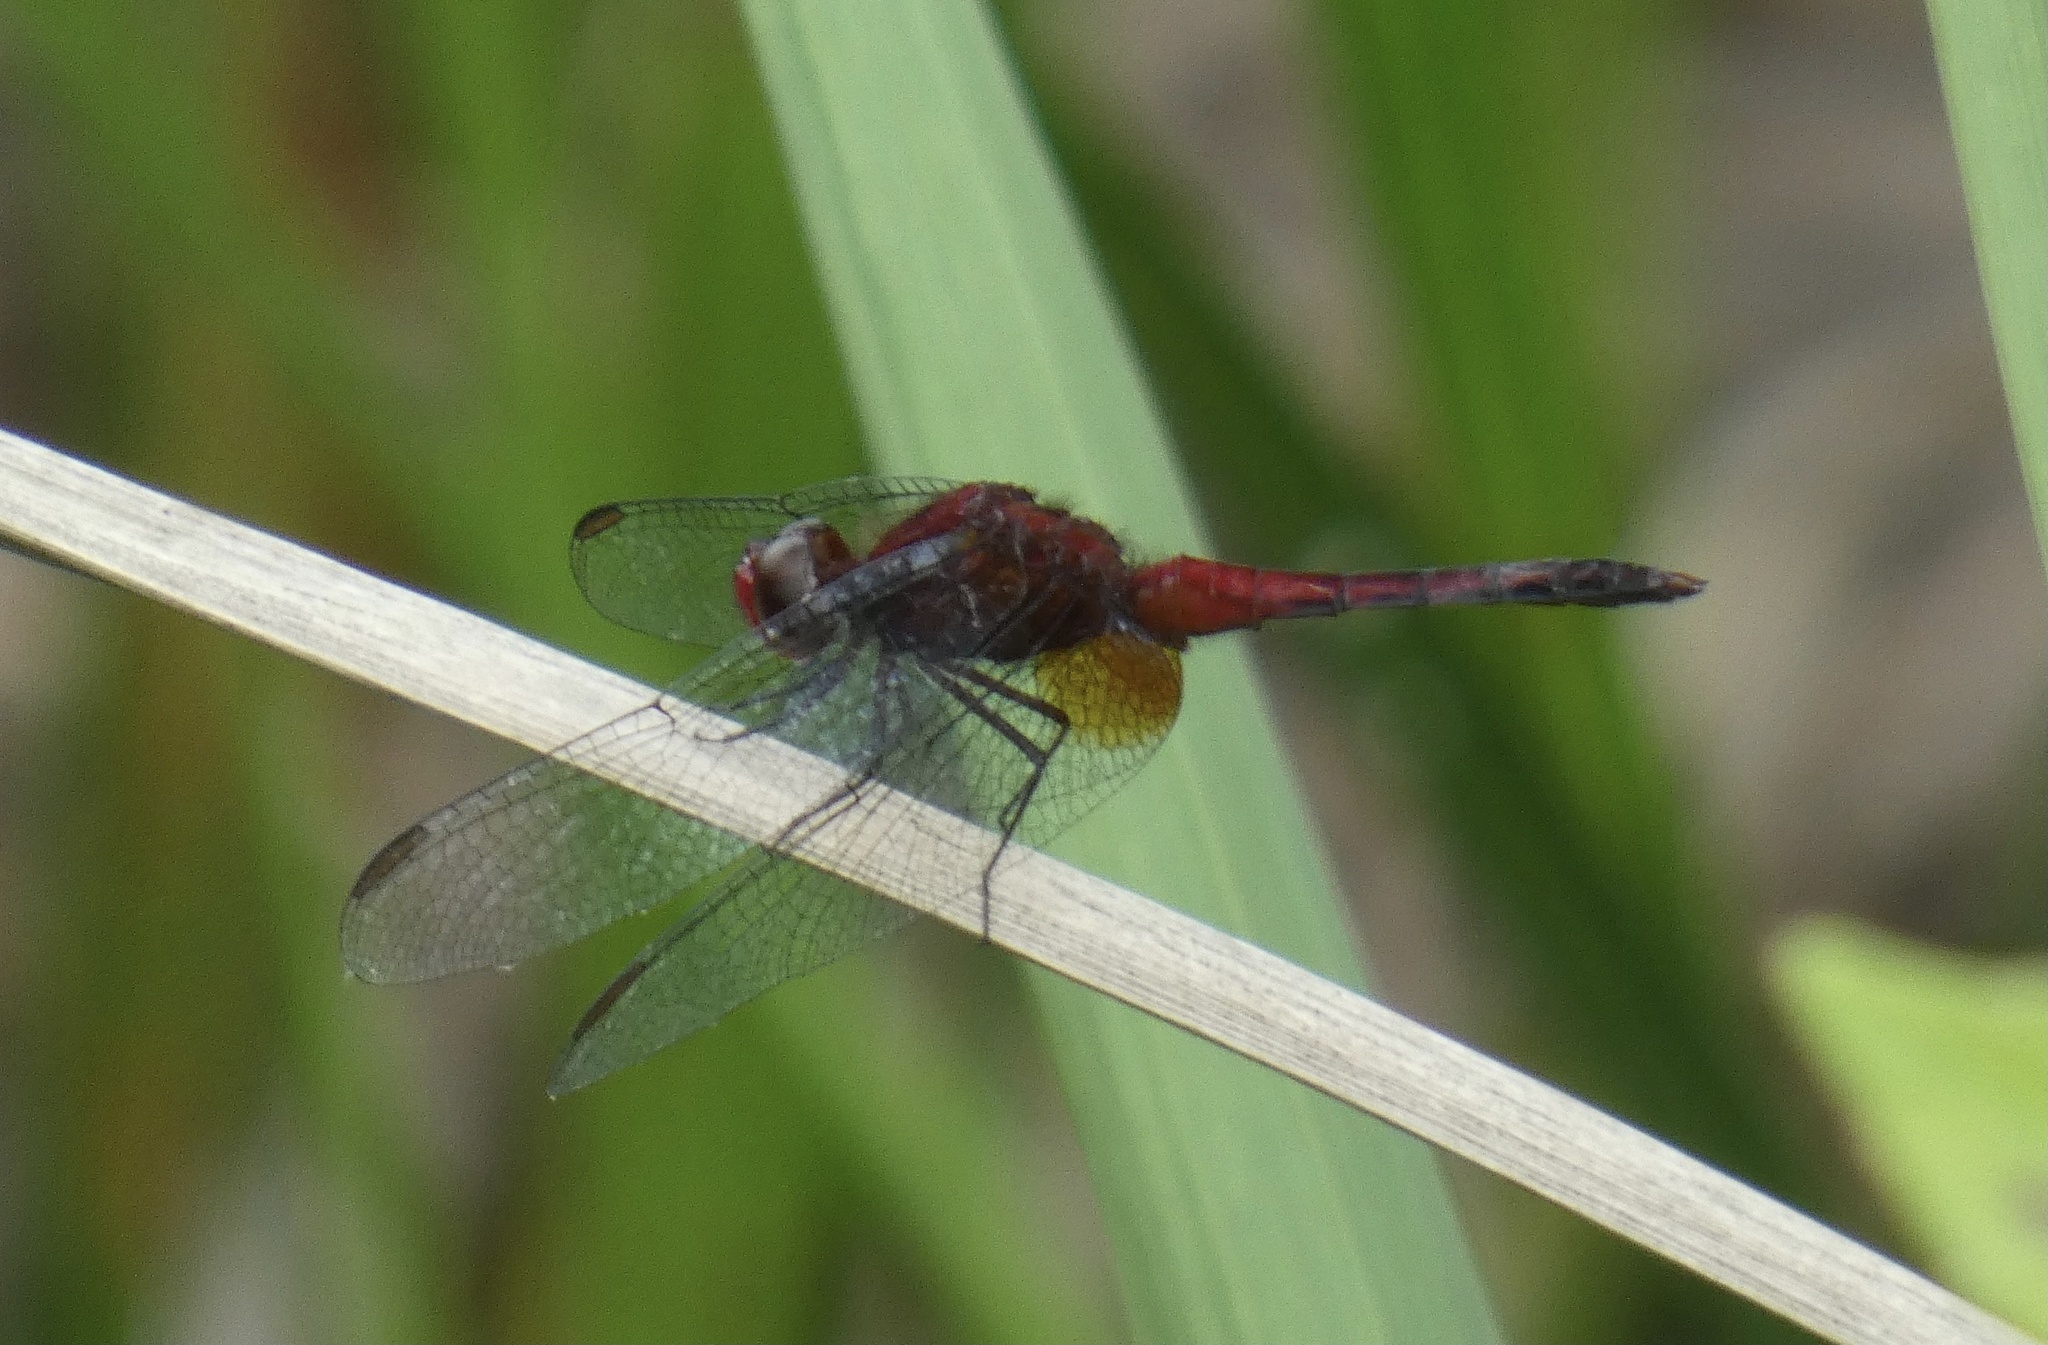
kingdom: Animalia
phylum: Arthropoda
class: Insecta
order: Odonata
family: Libellulidae
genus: Erythrodiplax
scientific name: Erythrodiplax fusca
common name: Red-faced dragonlet
